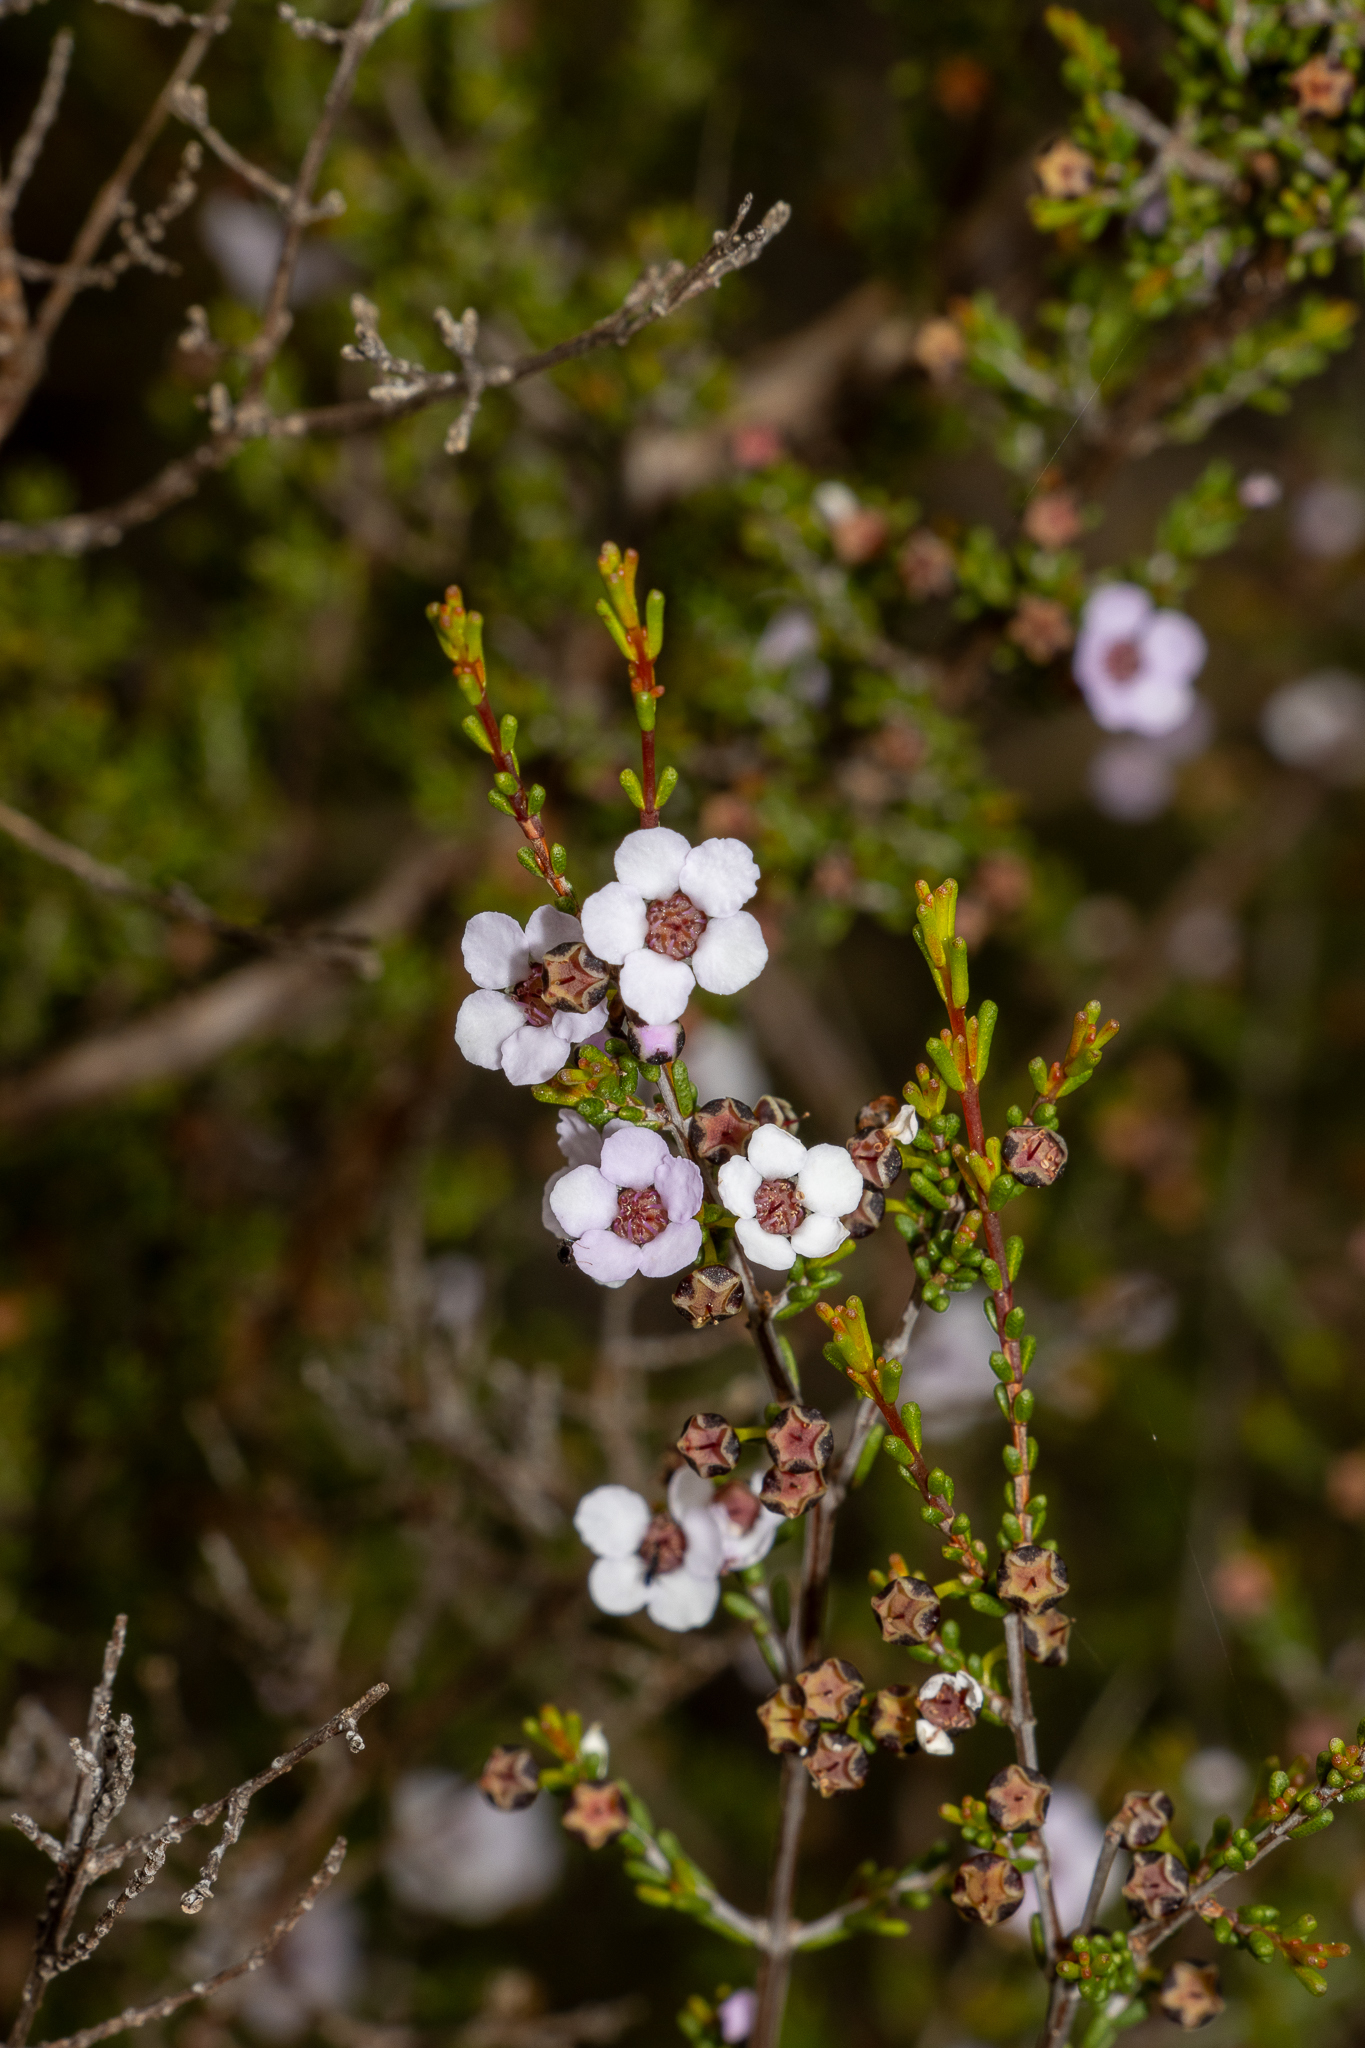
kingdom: Plantae
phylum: Tracheophyta
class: Magnoliopsida
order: Myrtales
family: Myrtaceae
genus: Rinzia
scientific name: Rinzia orientalis
